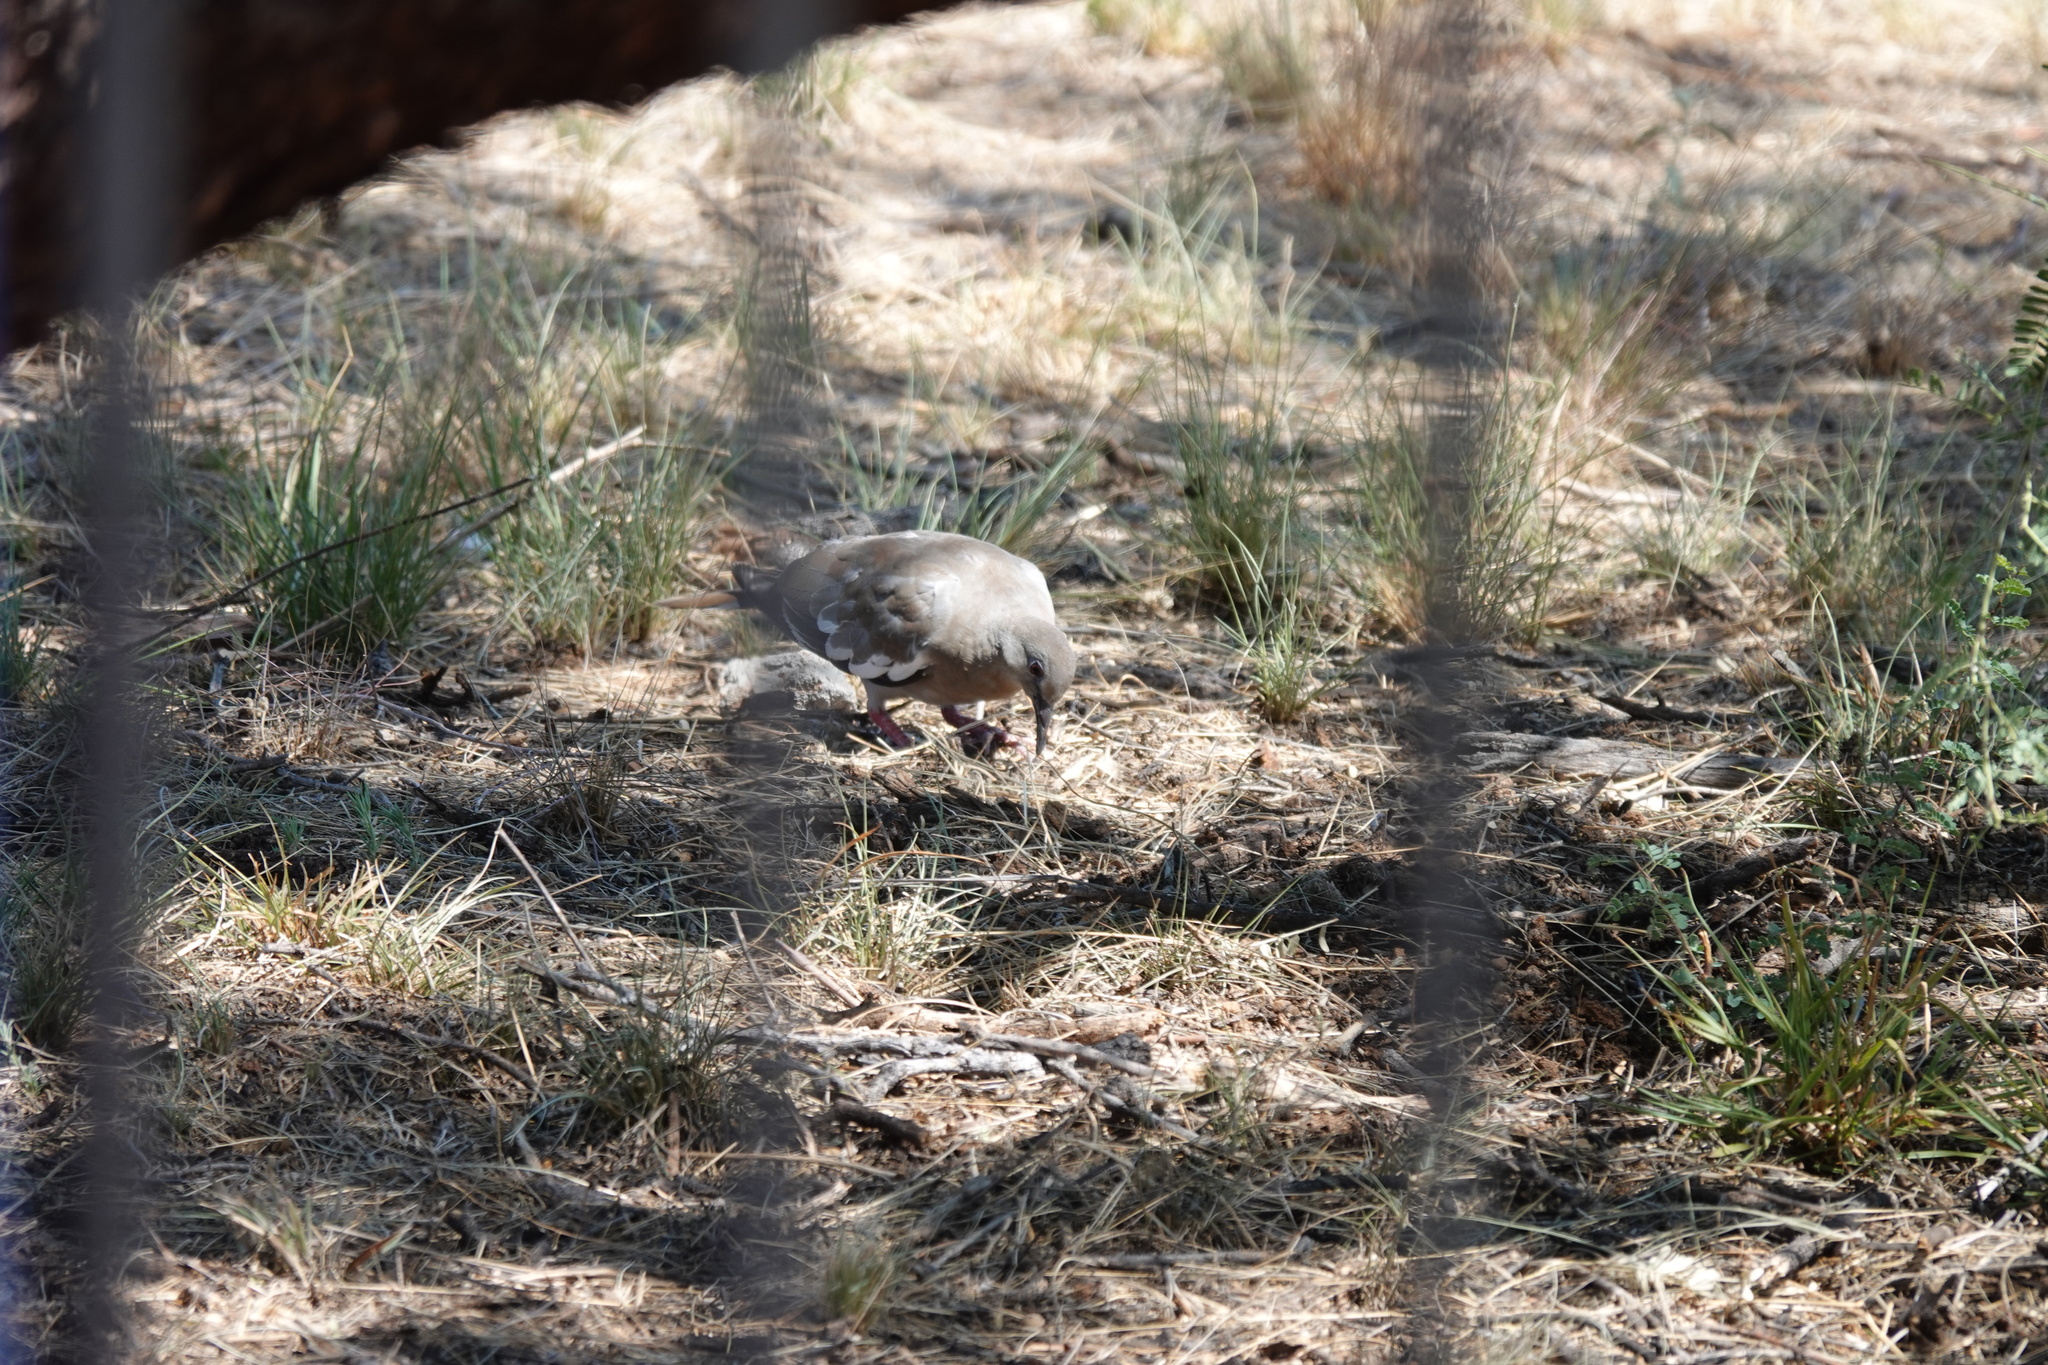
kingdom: Animalia
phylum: Chordata
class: Aves
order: Columbiformes
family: Columbidae
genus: Zenaida
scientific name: Zenaida asiatica
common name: White-winged dove
